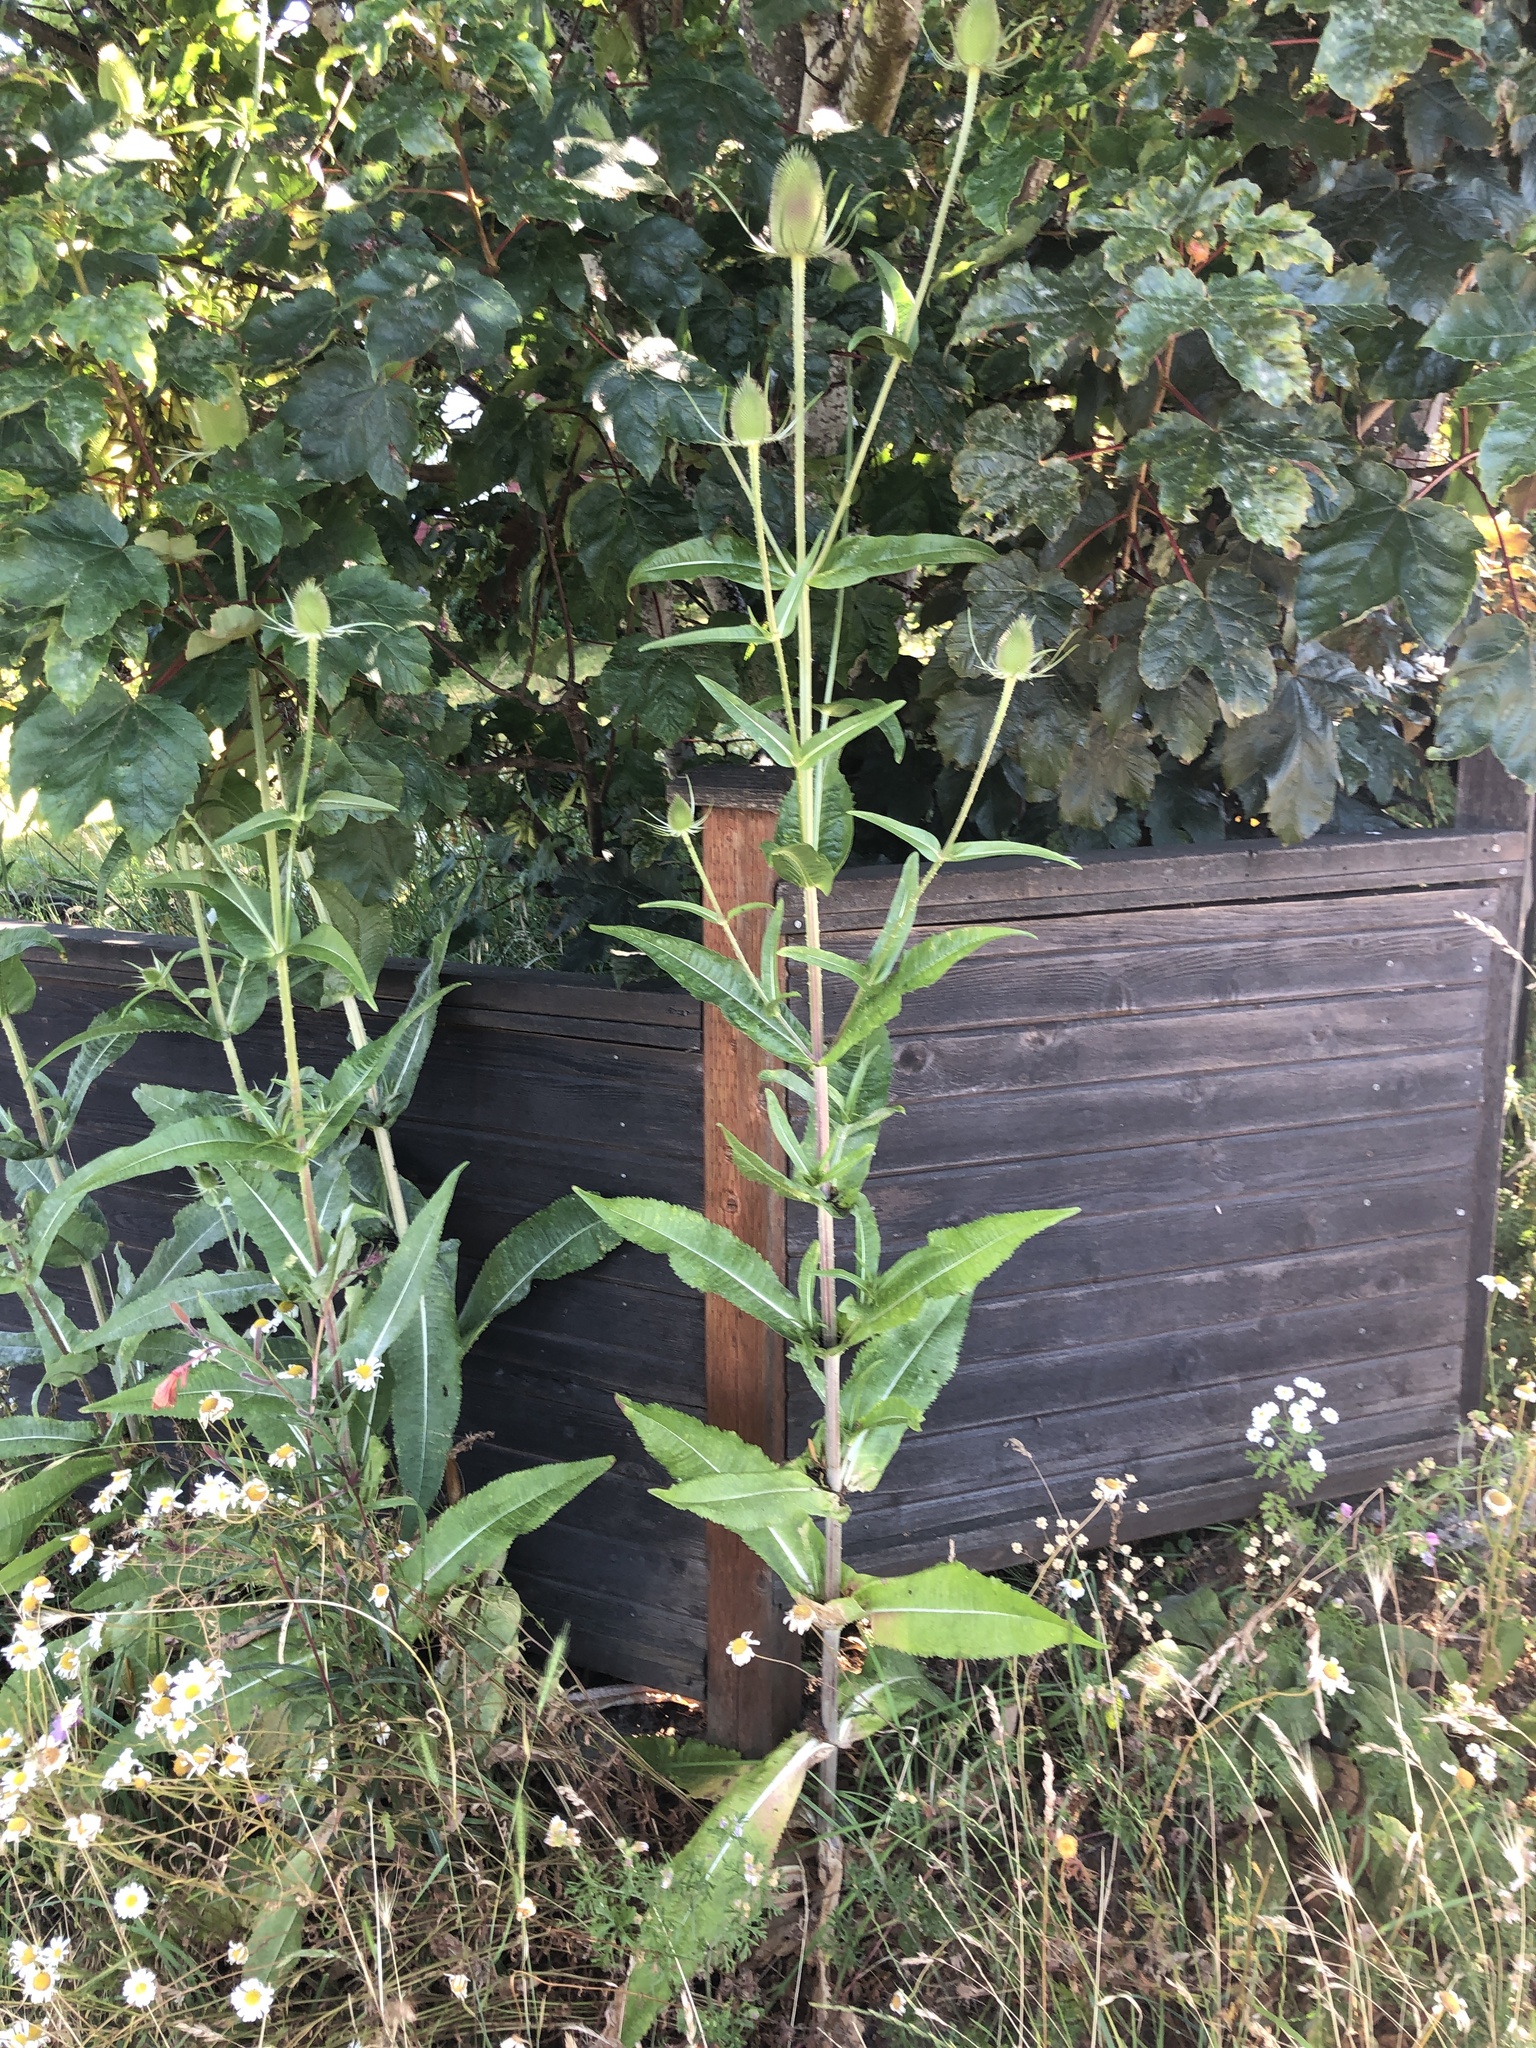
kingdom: Plantae
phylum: Tracheophyta
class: Magnoliopsida
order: Dipsacales
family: Caprifoliaceae
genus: Dipsacus
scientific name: Dipsacus fullonum
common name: Teasel
